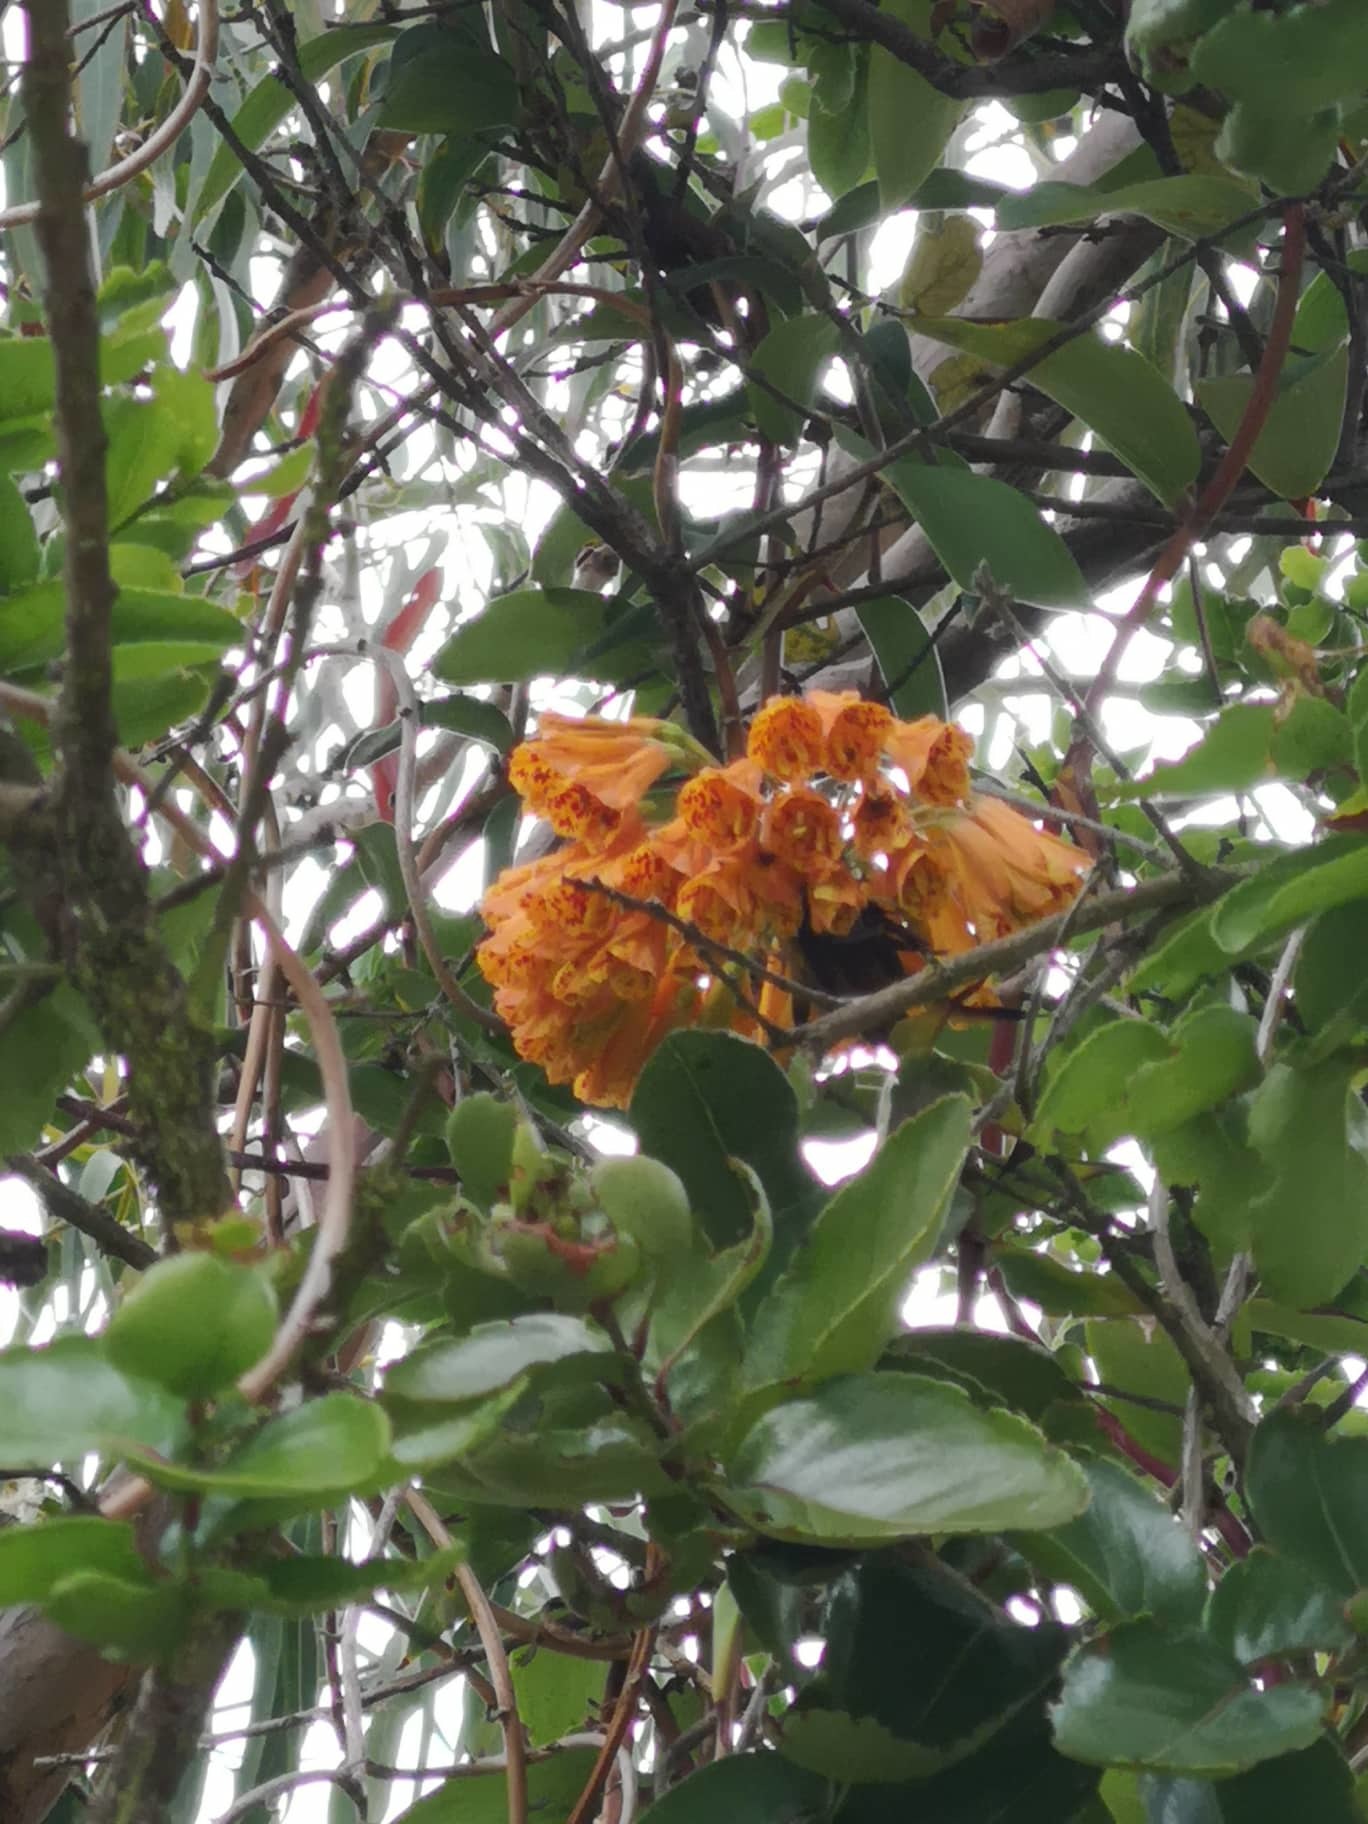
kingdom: Plantae
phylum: Tracheophyta
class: Liliopsida
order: Liliales
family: Alstroemeriaceae
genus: Bomarea
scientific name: Bomarea multiflora
